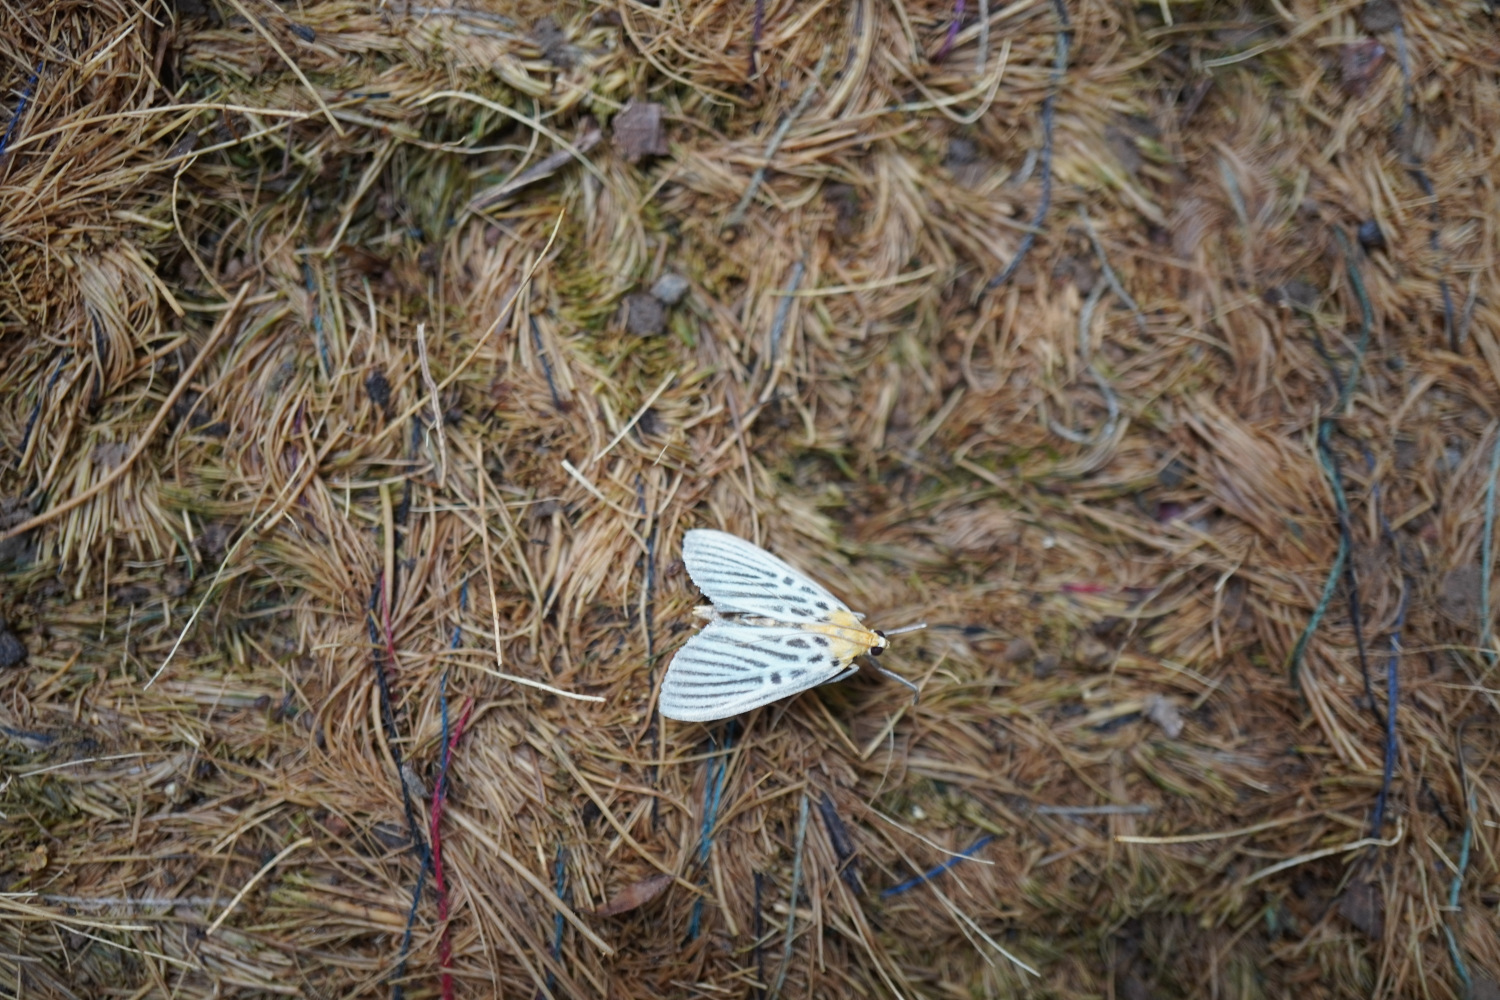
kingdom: Animalia
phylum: Arthropoda
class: Insecta
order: Lepidoptera
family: Crambidae
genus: Tyspanodes
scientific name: Tyspanodes hypsalis
